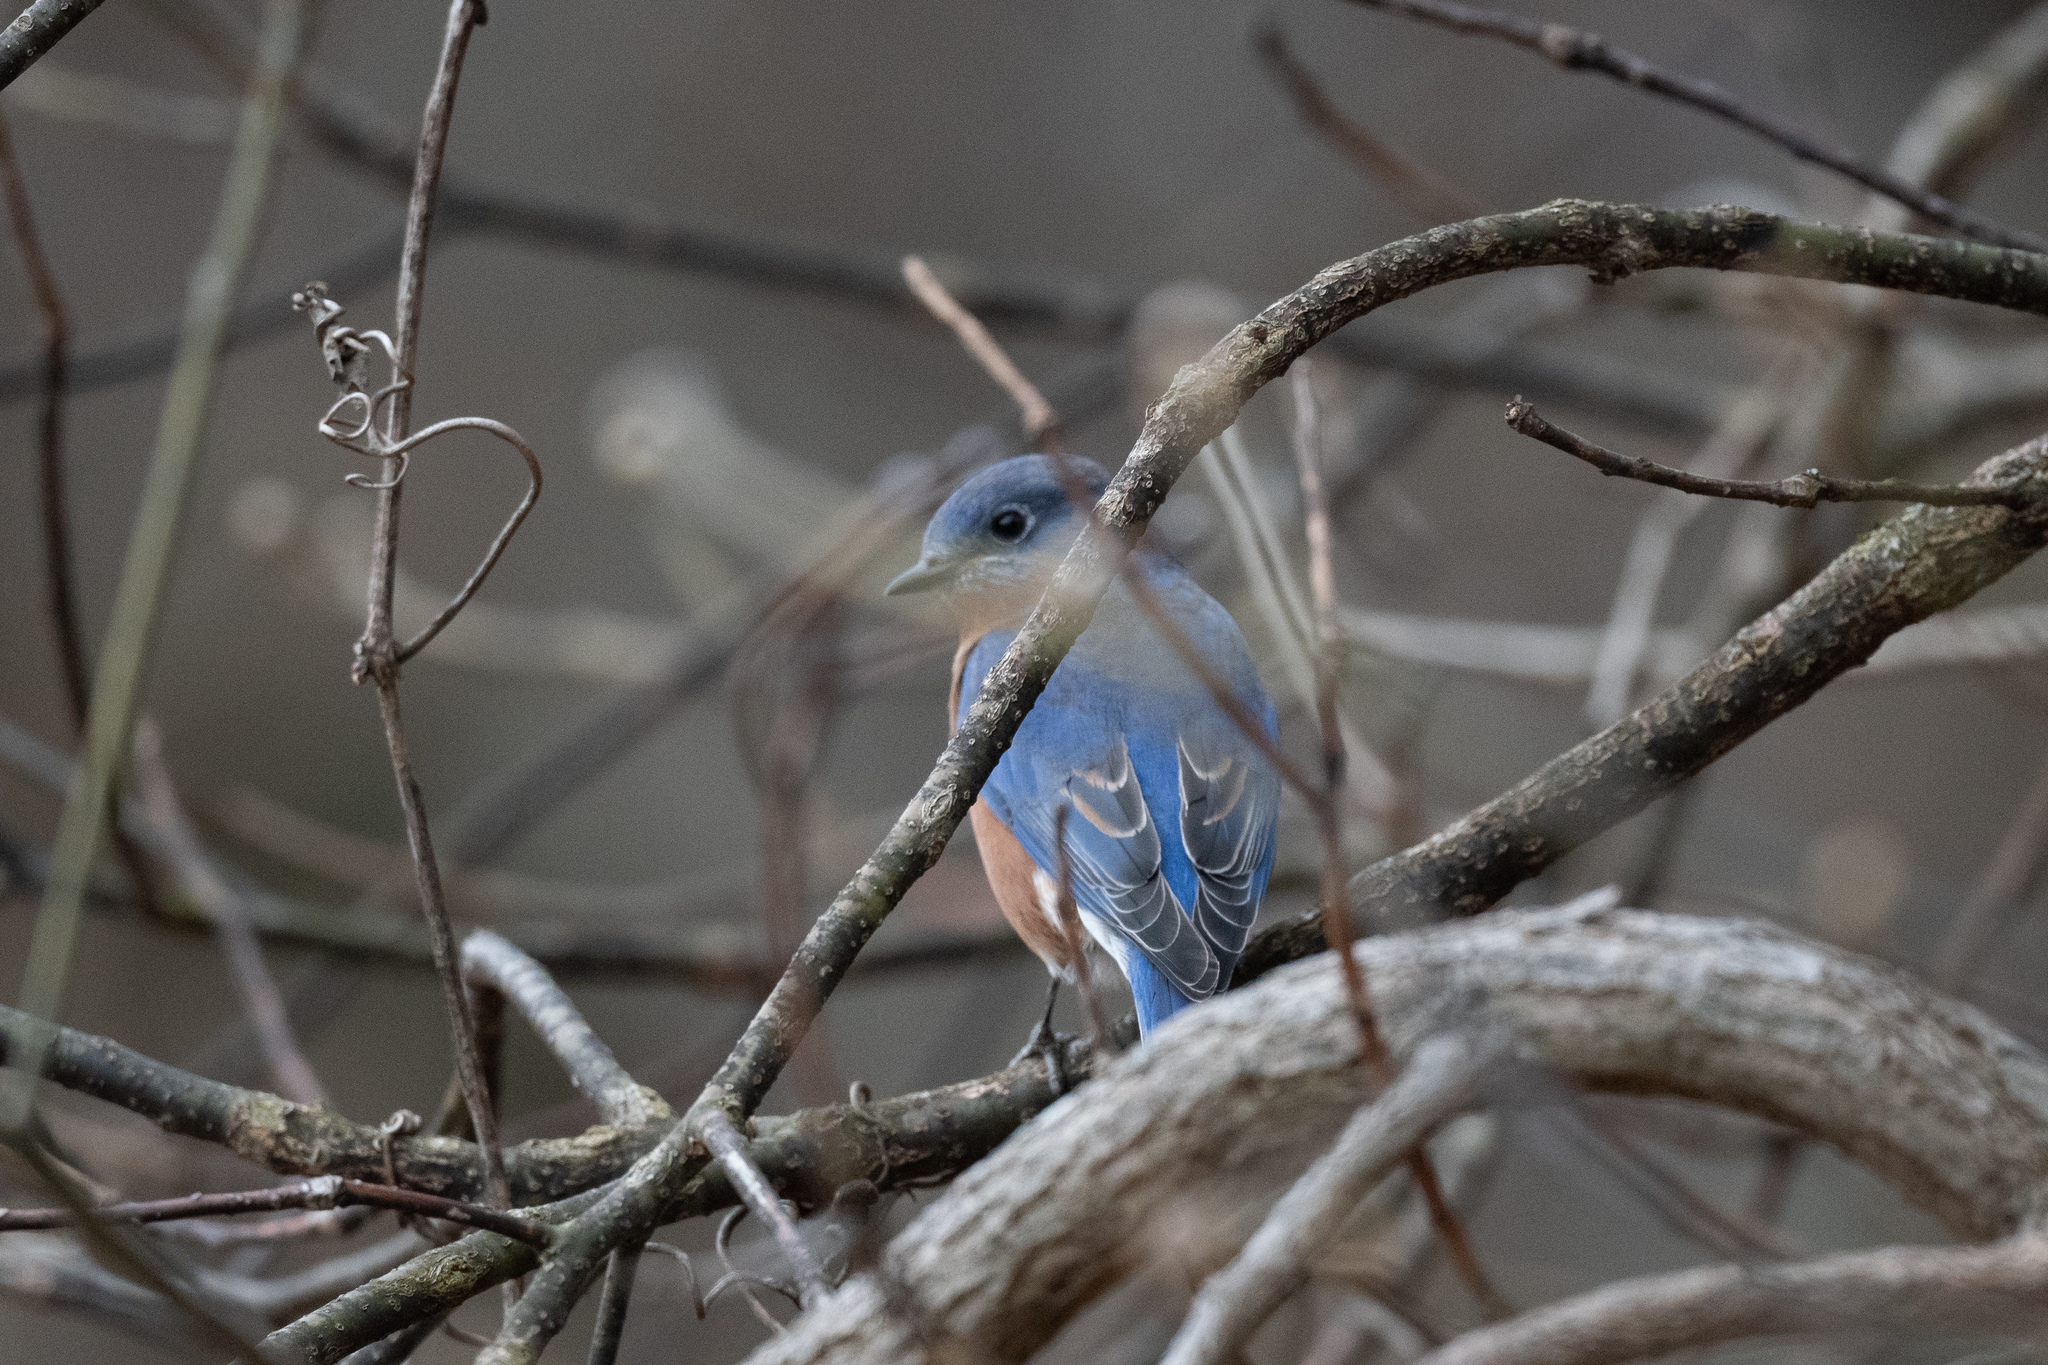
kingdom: Animalia
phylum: Chordata
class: Aves
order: Passeriformes
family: Turdidae
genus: Sialia
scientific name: Sialia sialis
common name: Eastern bluebird
